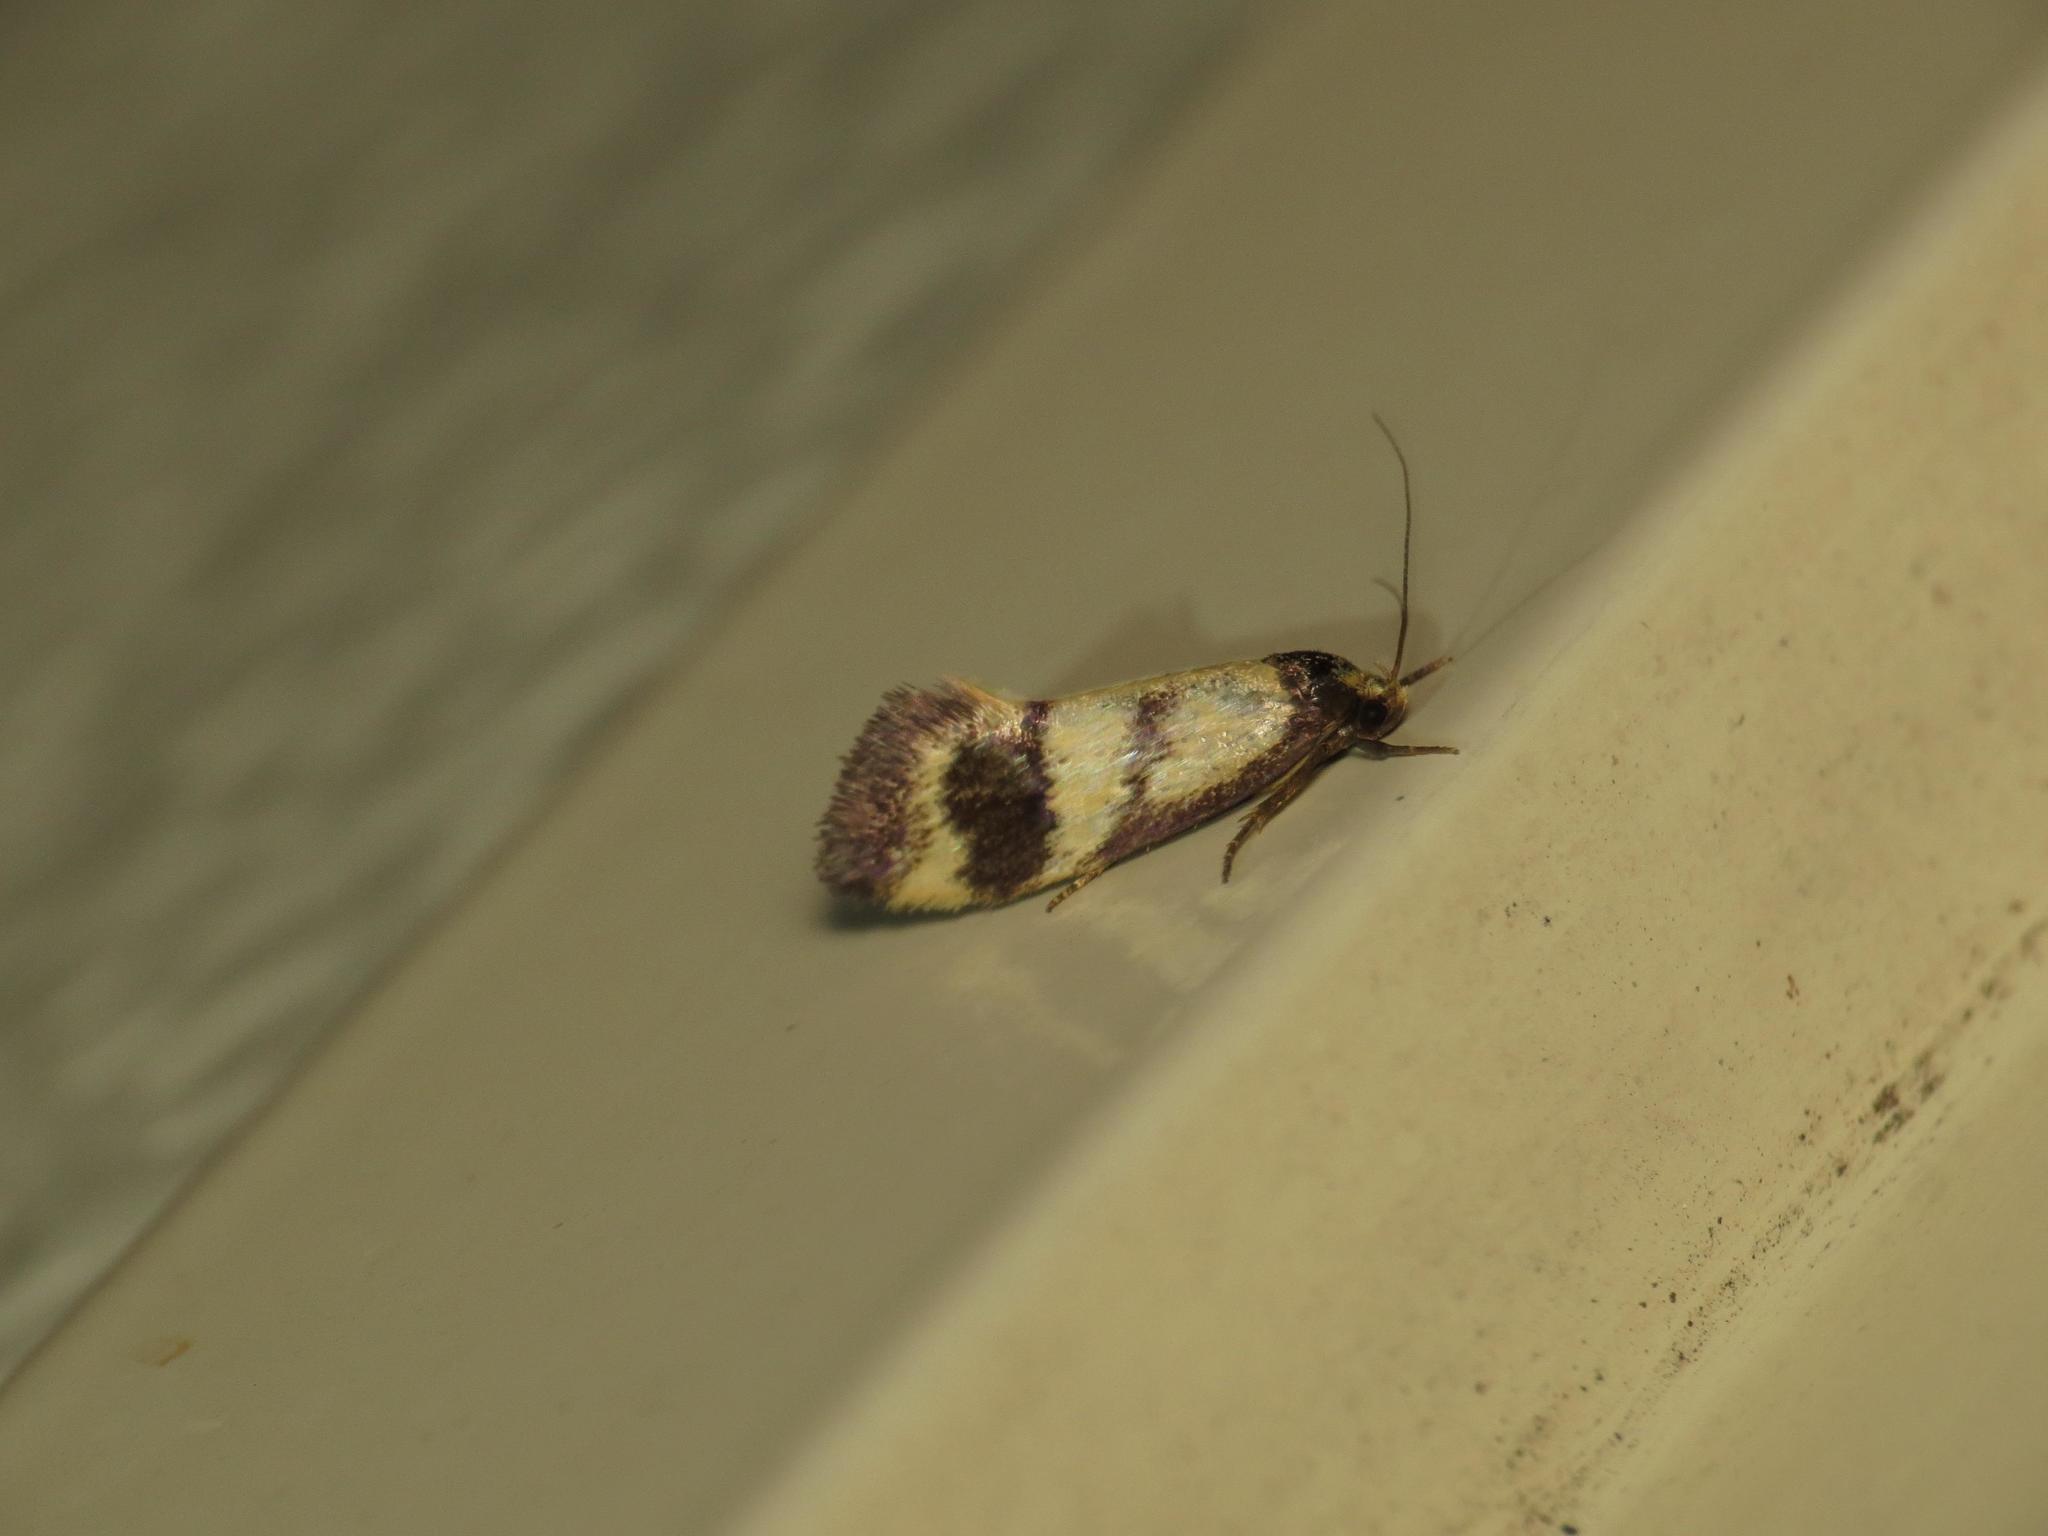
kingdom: Animalia
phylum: Arthropoda
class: Insecta
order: Lepidoptera
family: Oecophoridae
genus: Olbonoma
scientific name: Olbonoma triptycha
